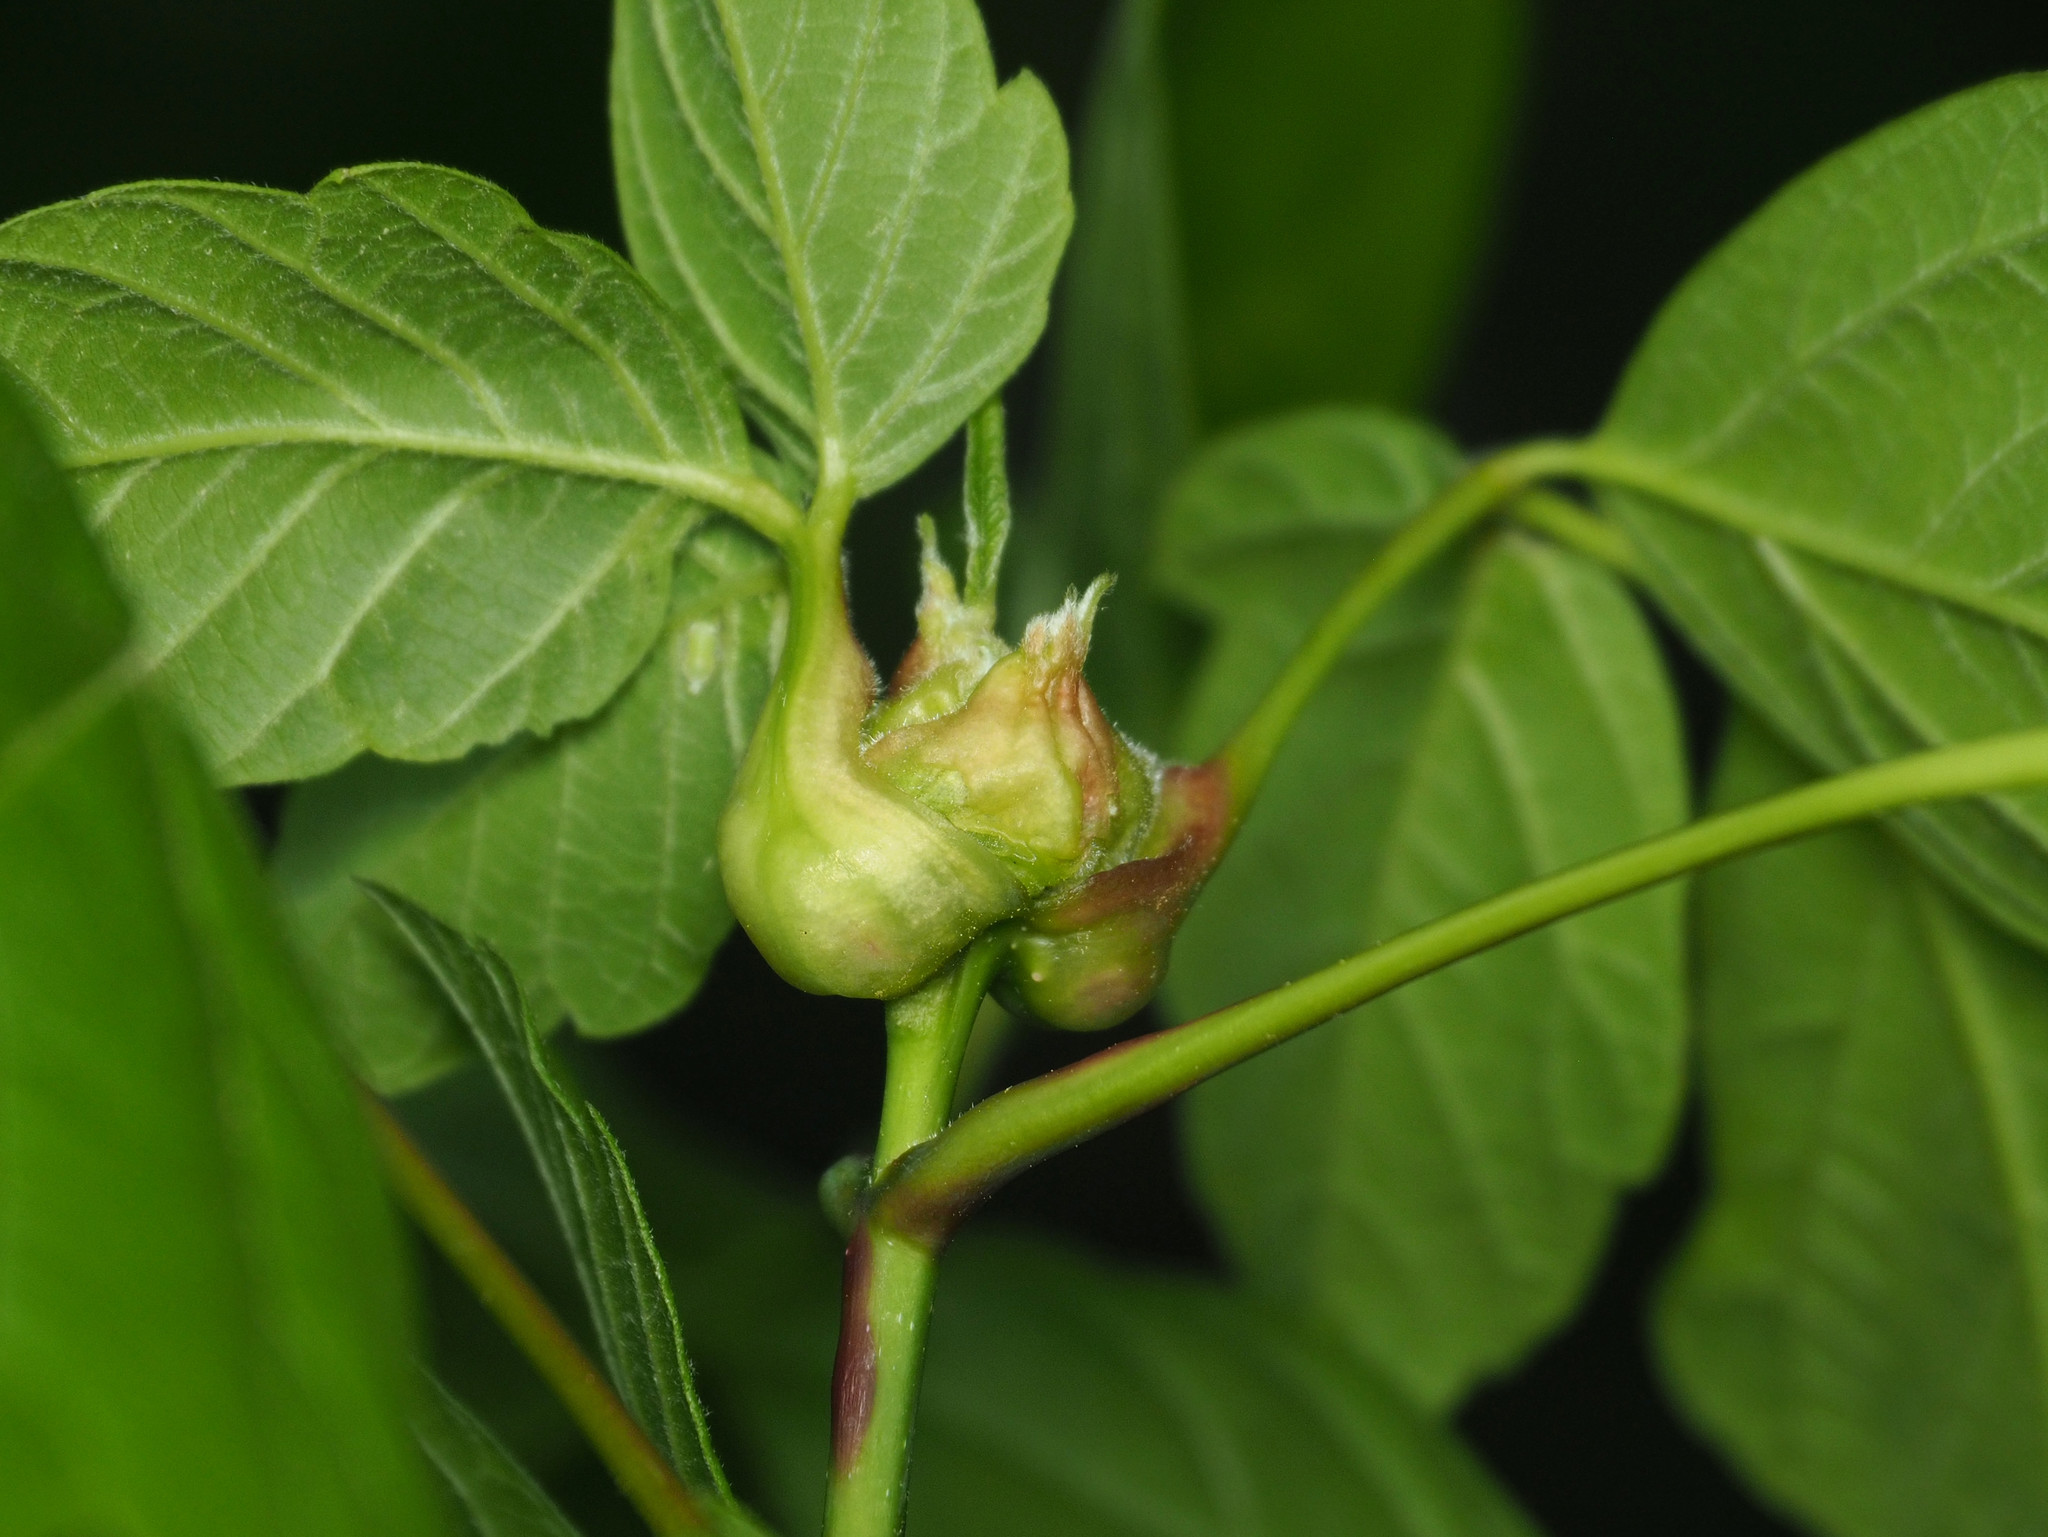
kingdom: Animalia
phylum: Arthropoda
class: Insecta
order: Diptera
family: Cecidomyiidae
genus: Contarinia
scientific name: Contarinia negundinis
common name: Boxelder budgall midge
